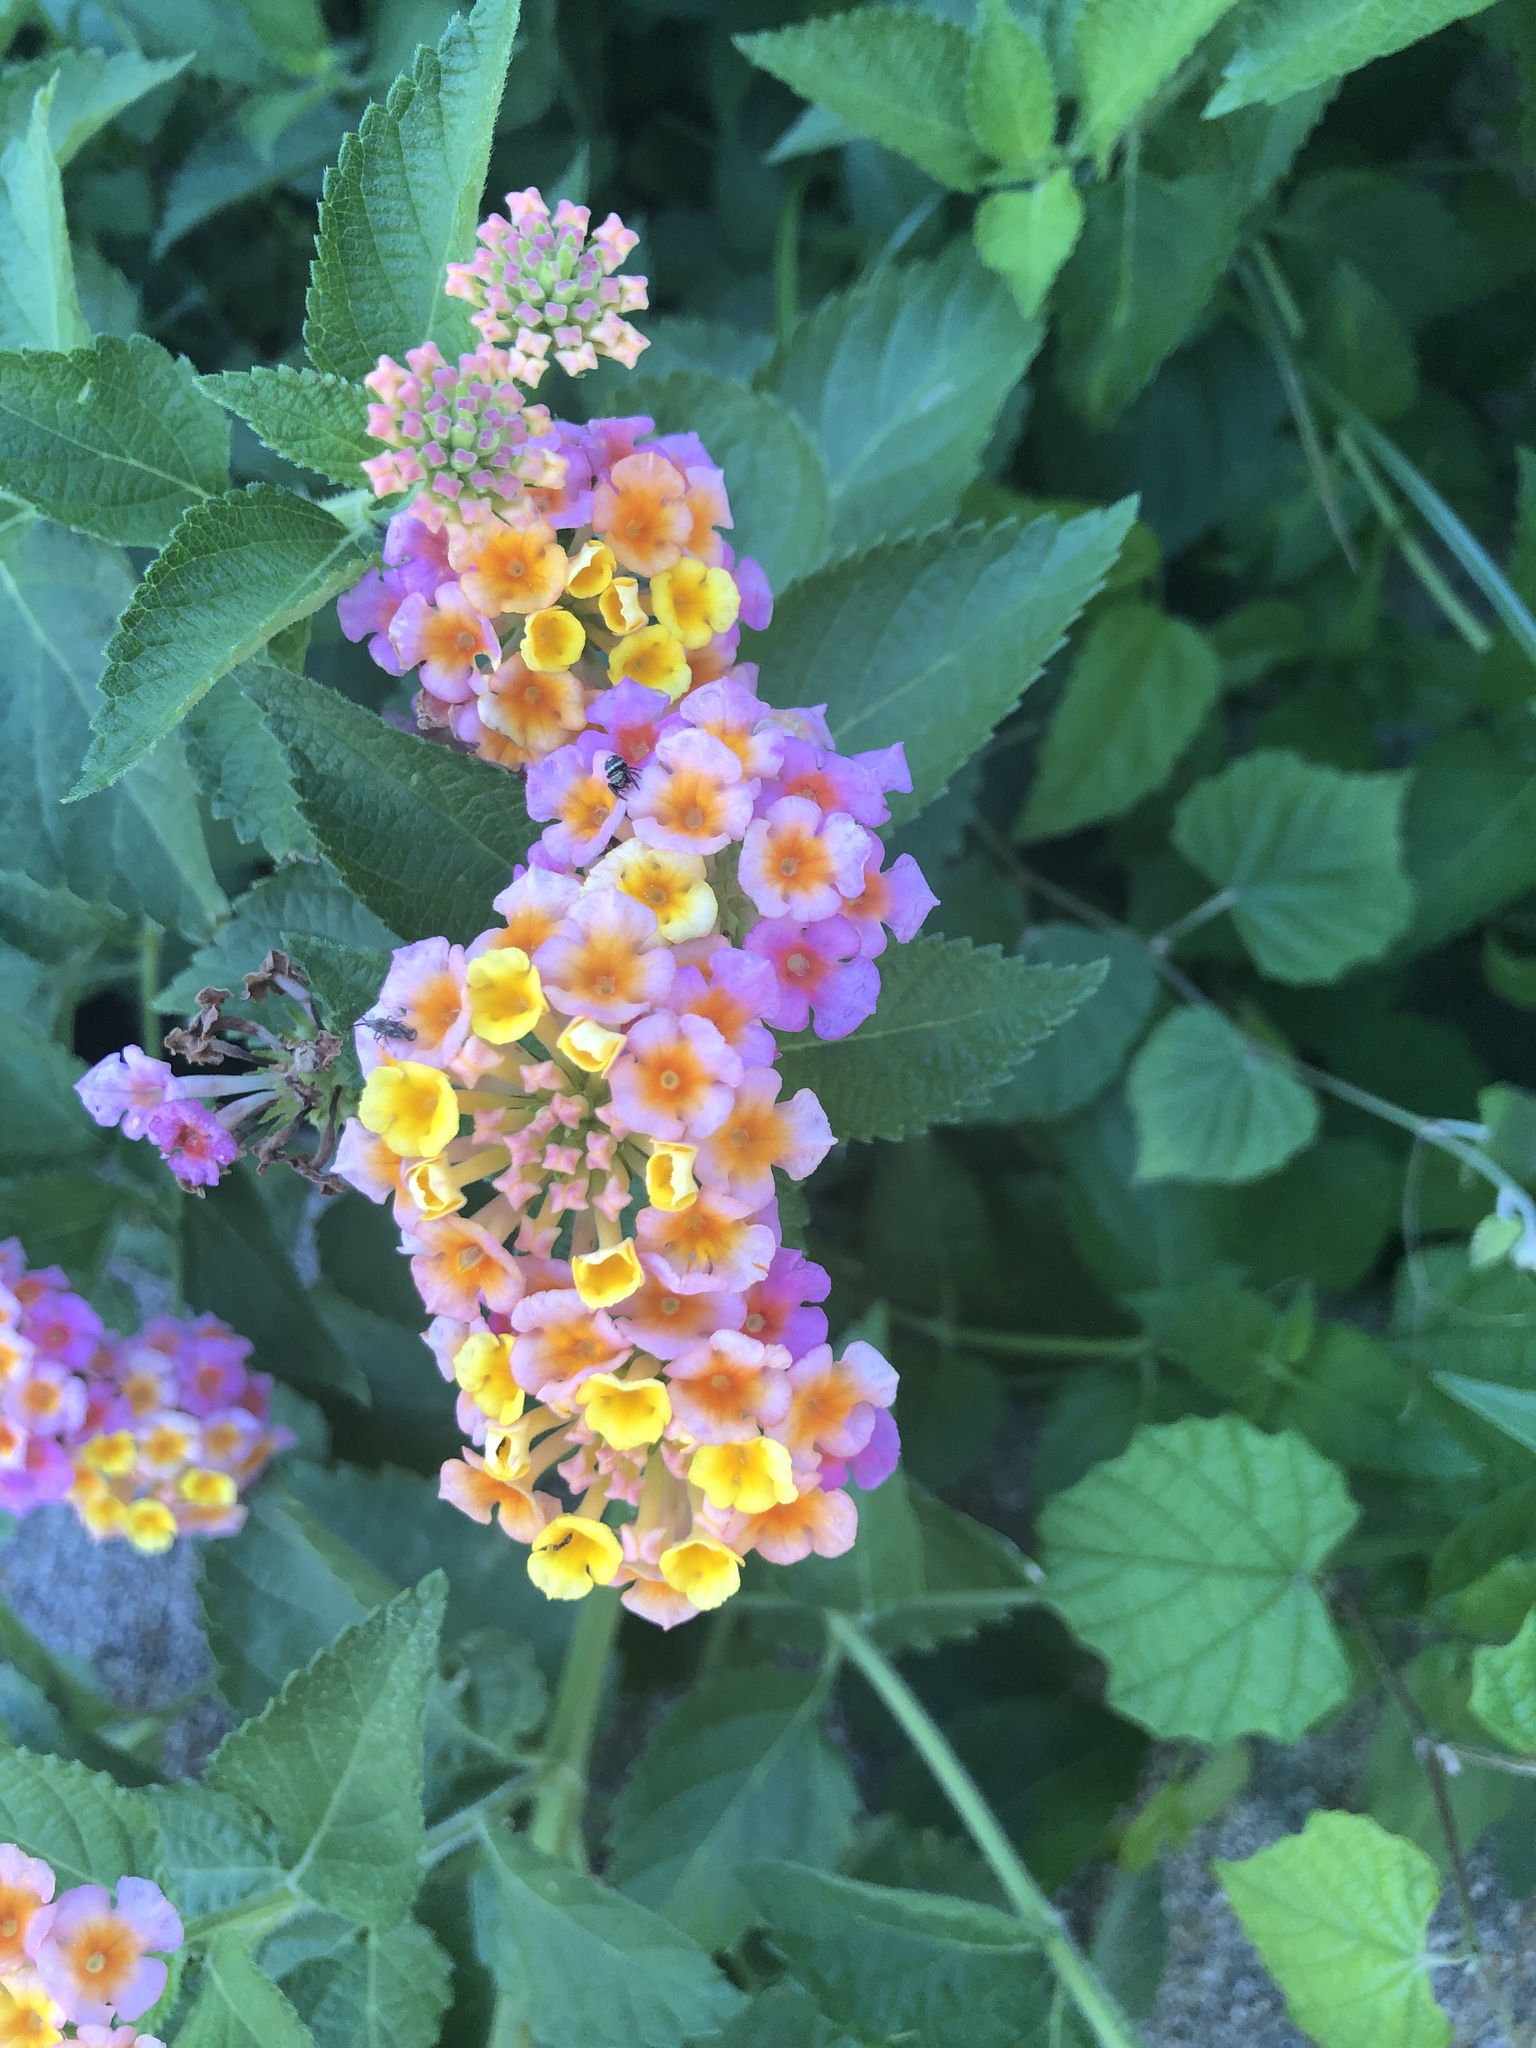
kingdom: Plantae
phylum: Tracheophyta
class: Magnoliopsida
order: Lamiales
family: Verbenaceae
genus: Lantana
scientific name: Lantana strigocamara
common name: Lantana
